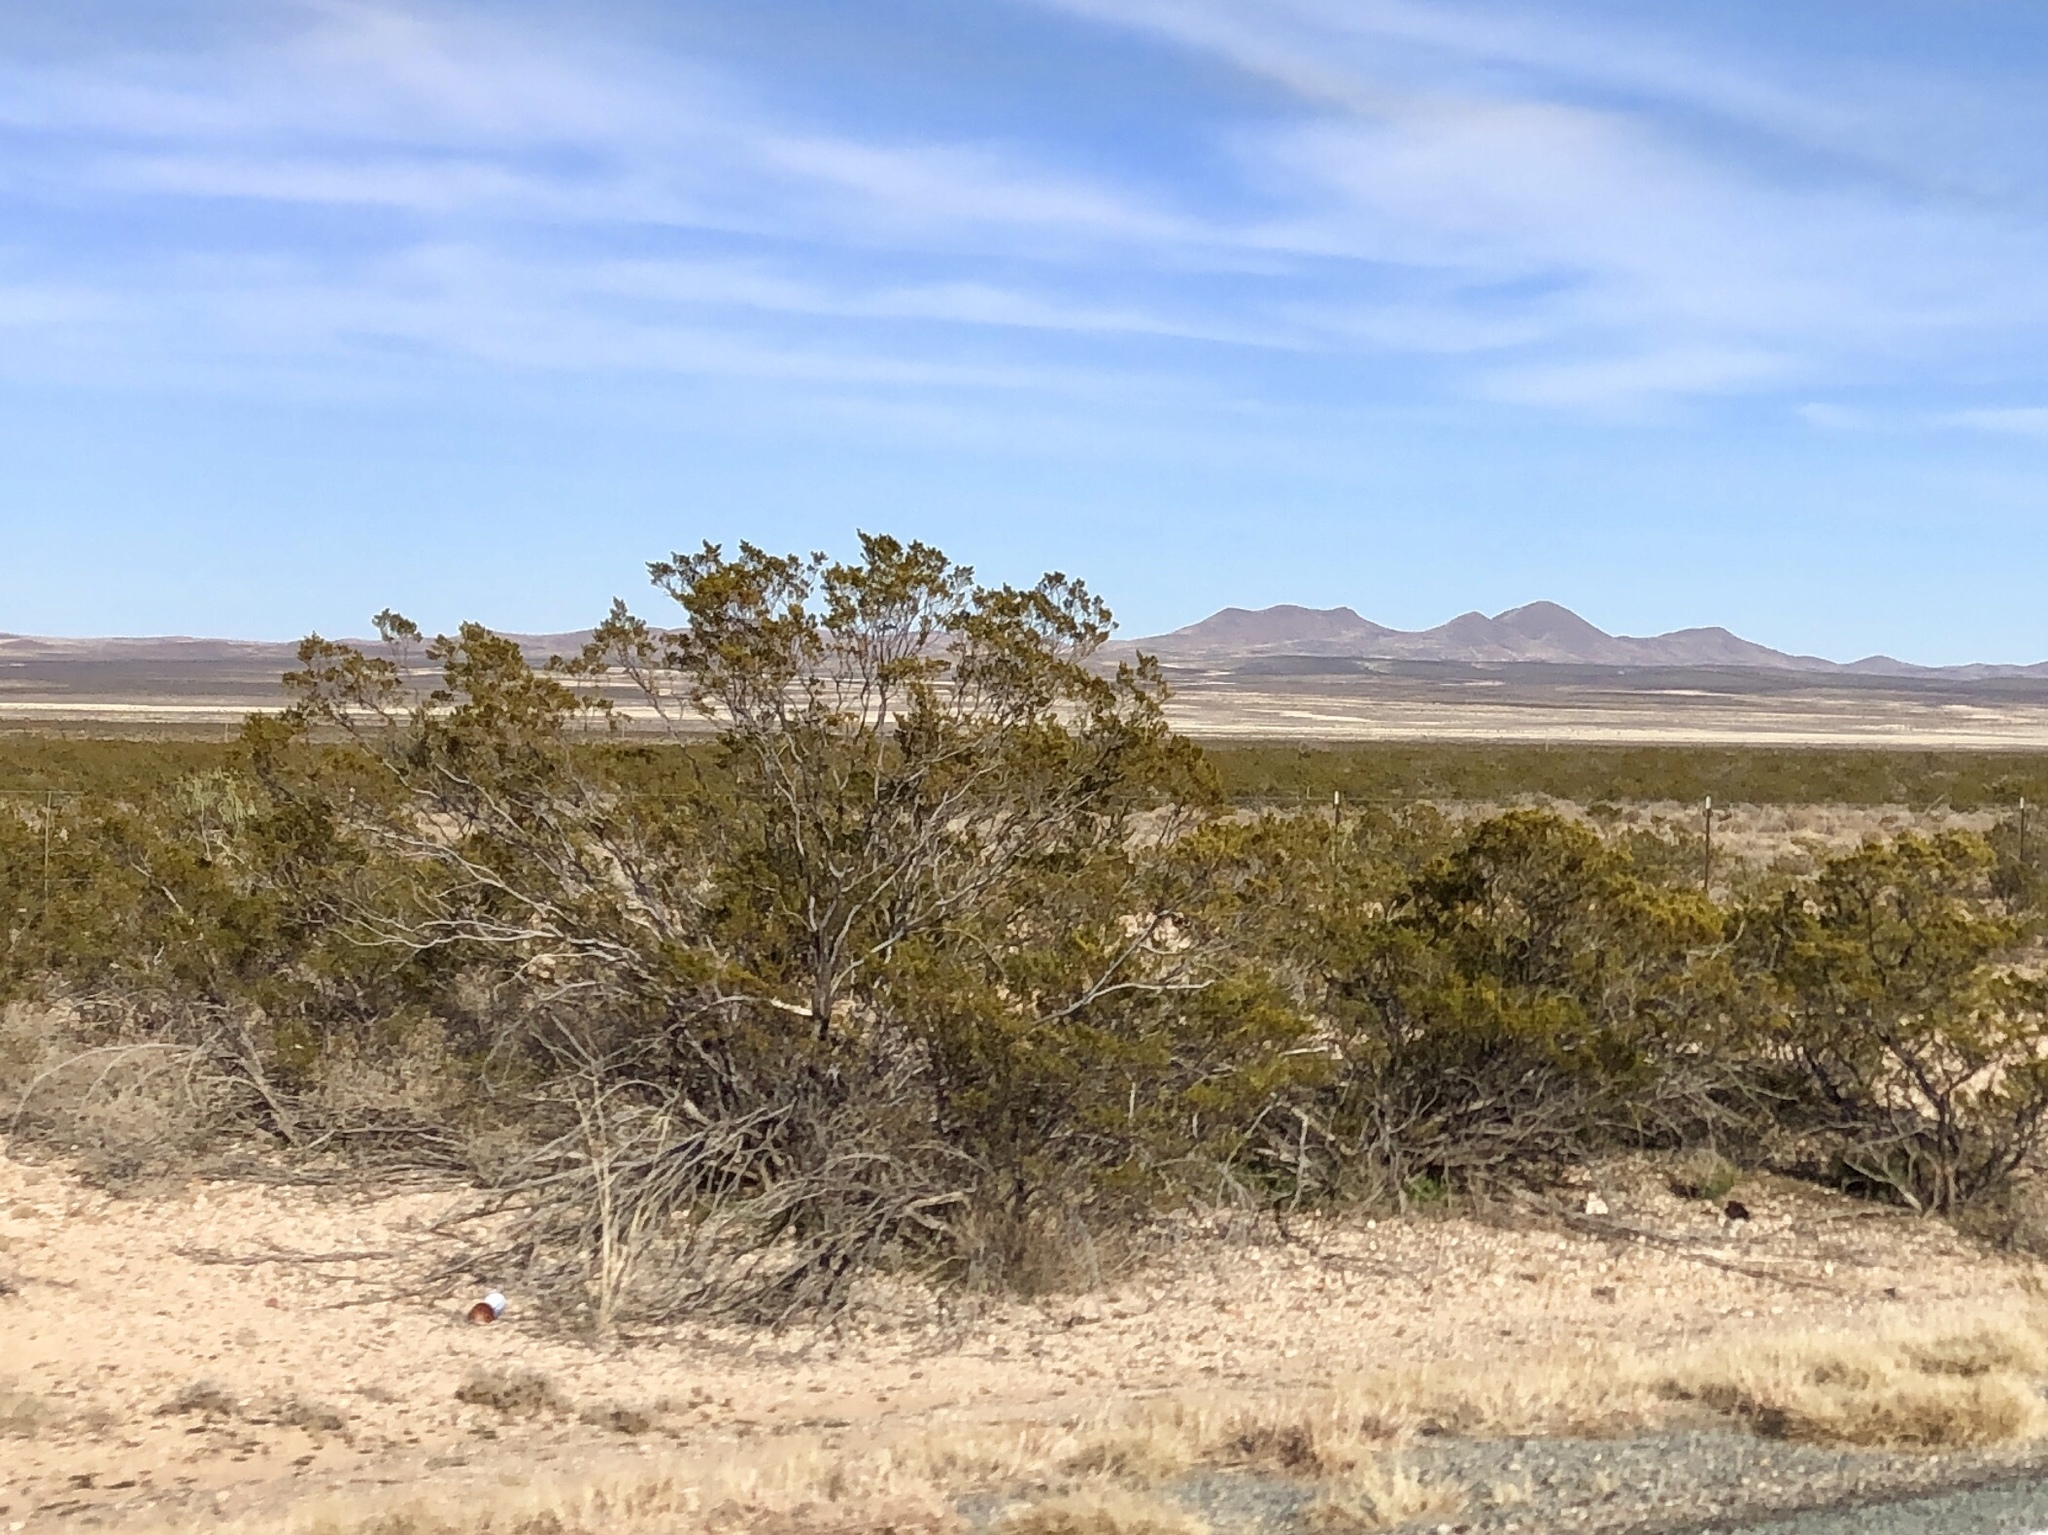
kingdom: Plantae
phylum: Tracheophyta
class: Magnoliopsida
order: Zygophyllales
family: Zygophyllaceae
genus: Larrea
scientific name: Larrea tridentata
